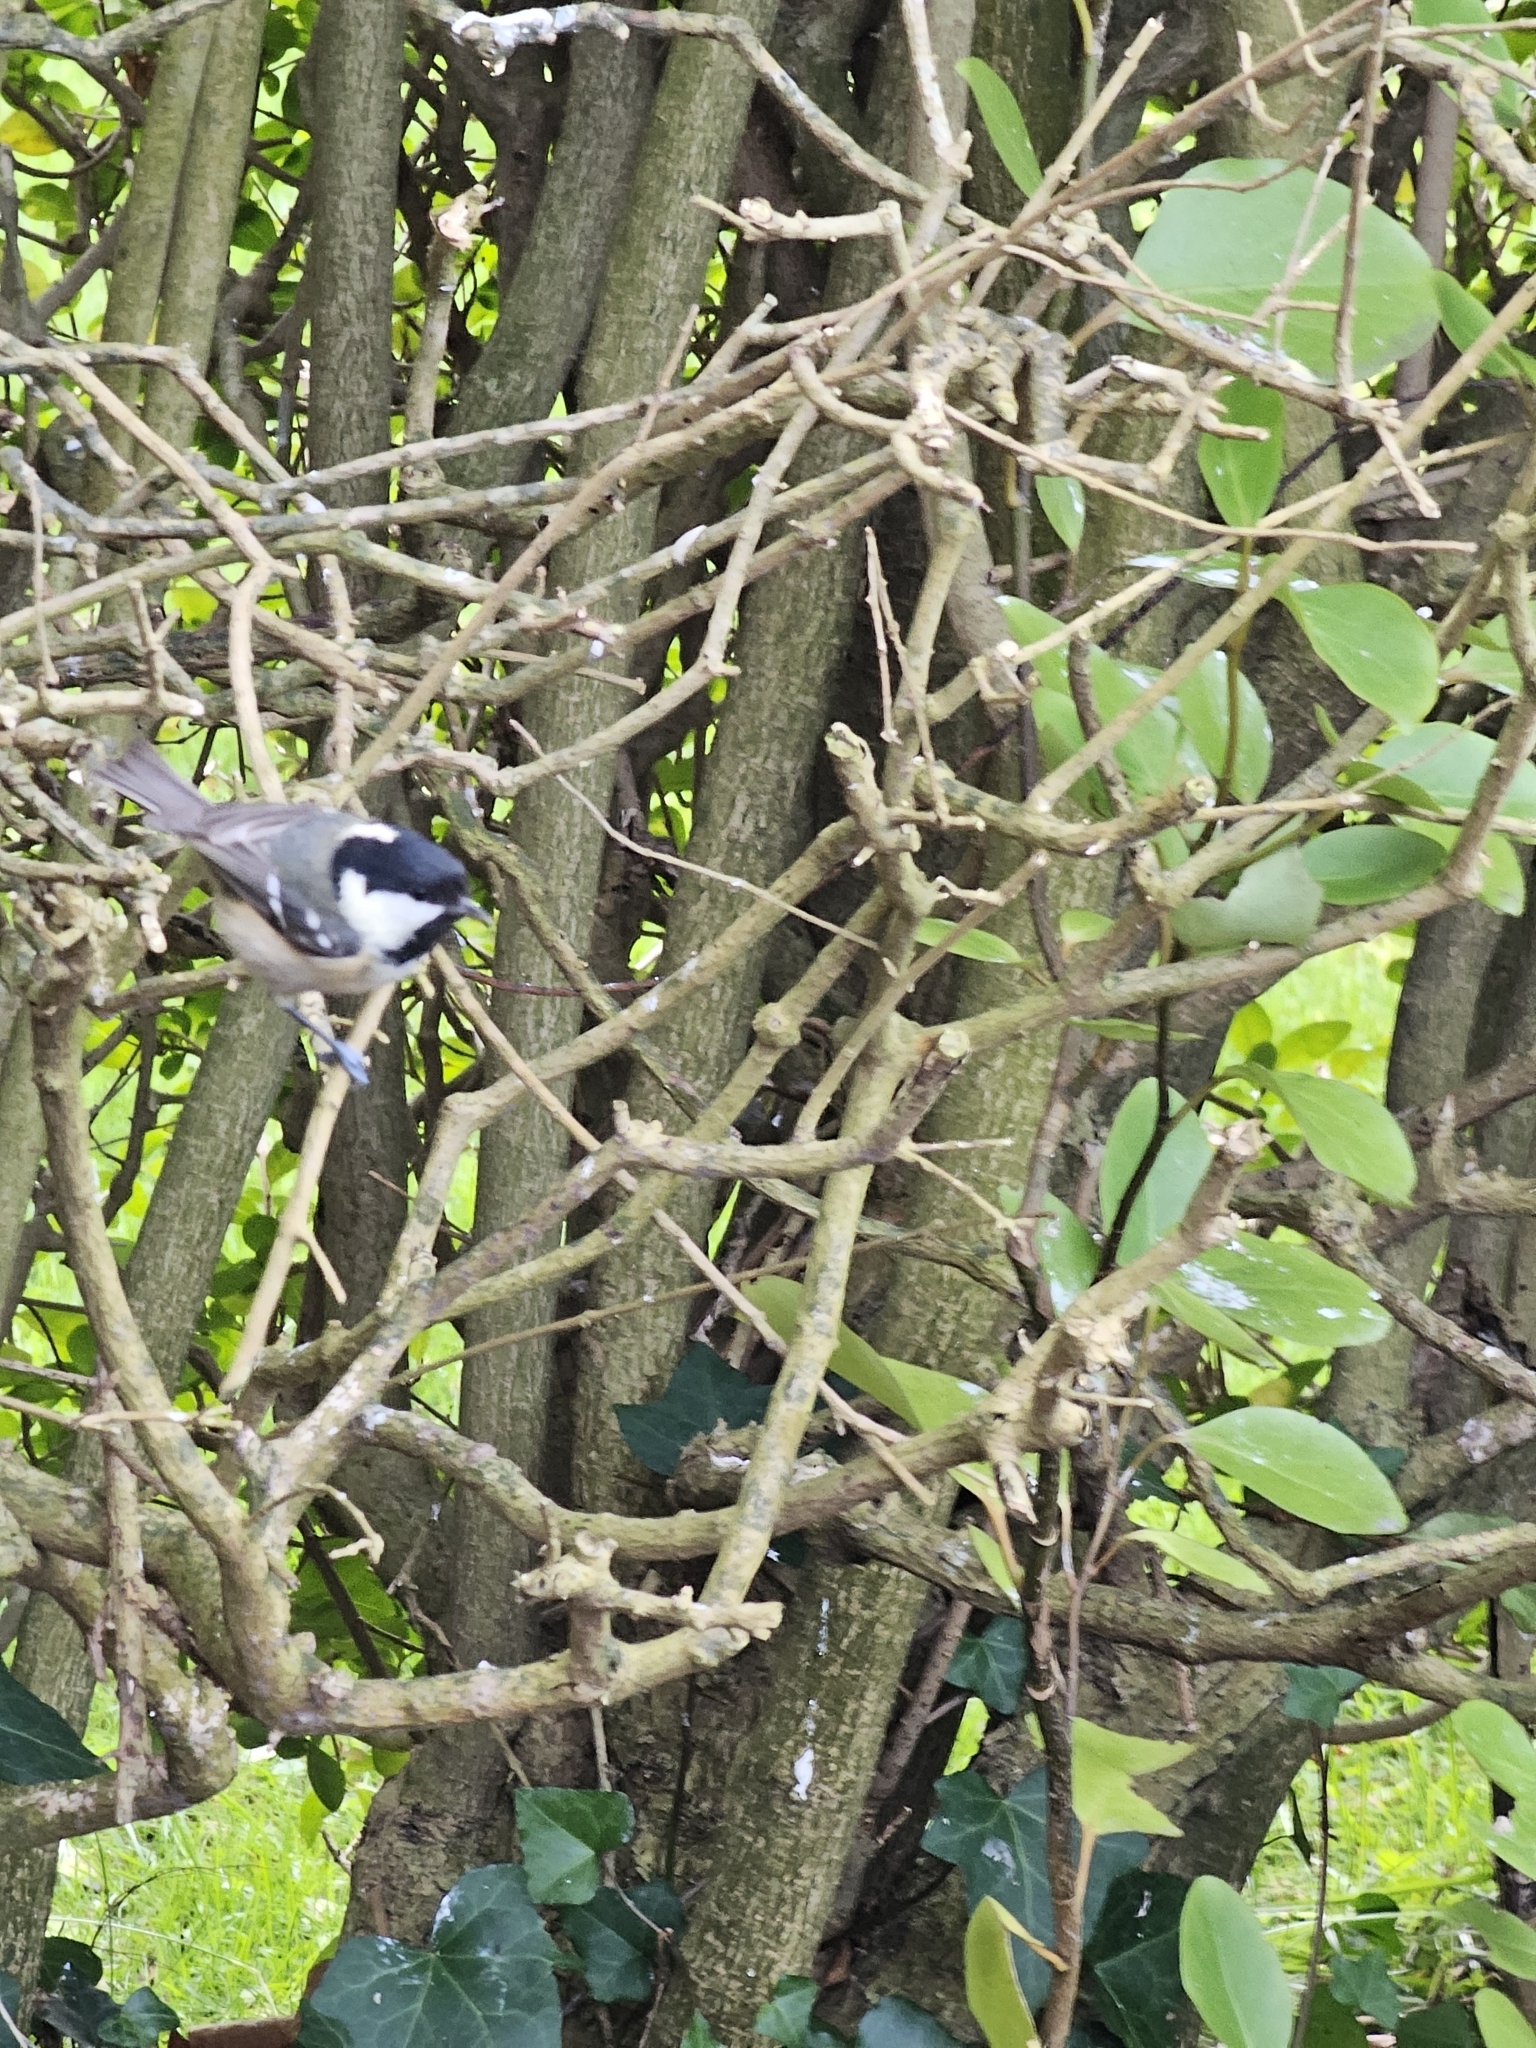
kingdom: Animalia
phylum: Chordata
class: Aves
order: Passeriformes
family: Paridae
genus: Periparus
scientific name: Periparus ater
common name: Coal tit
